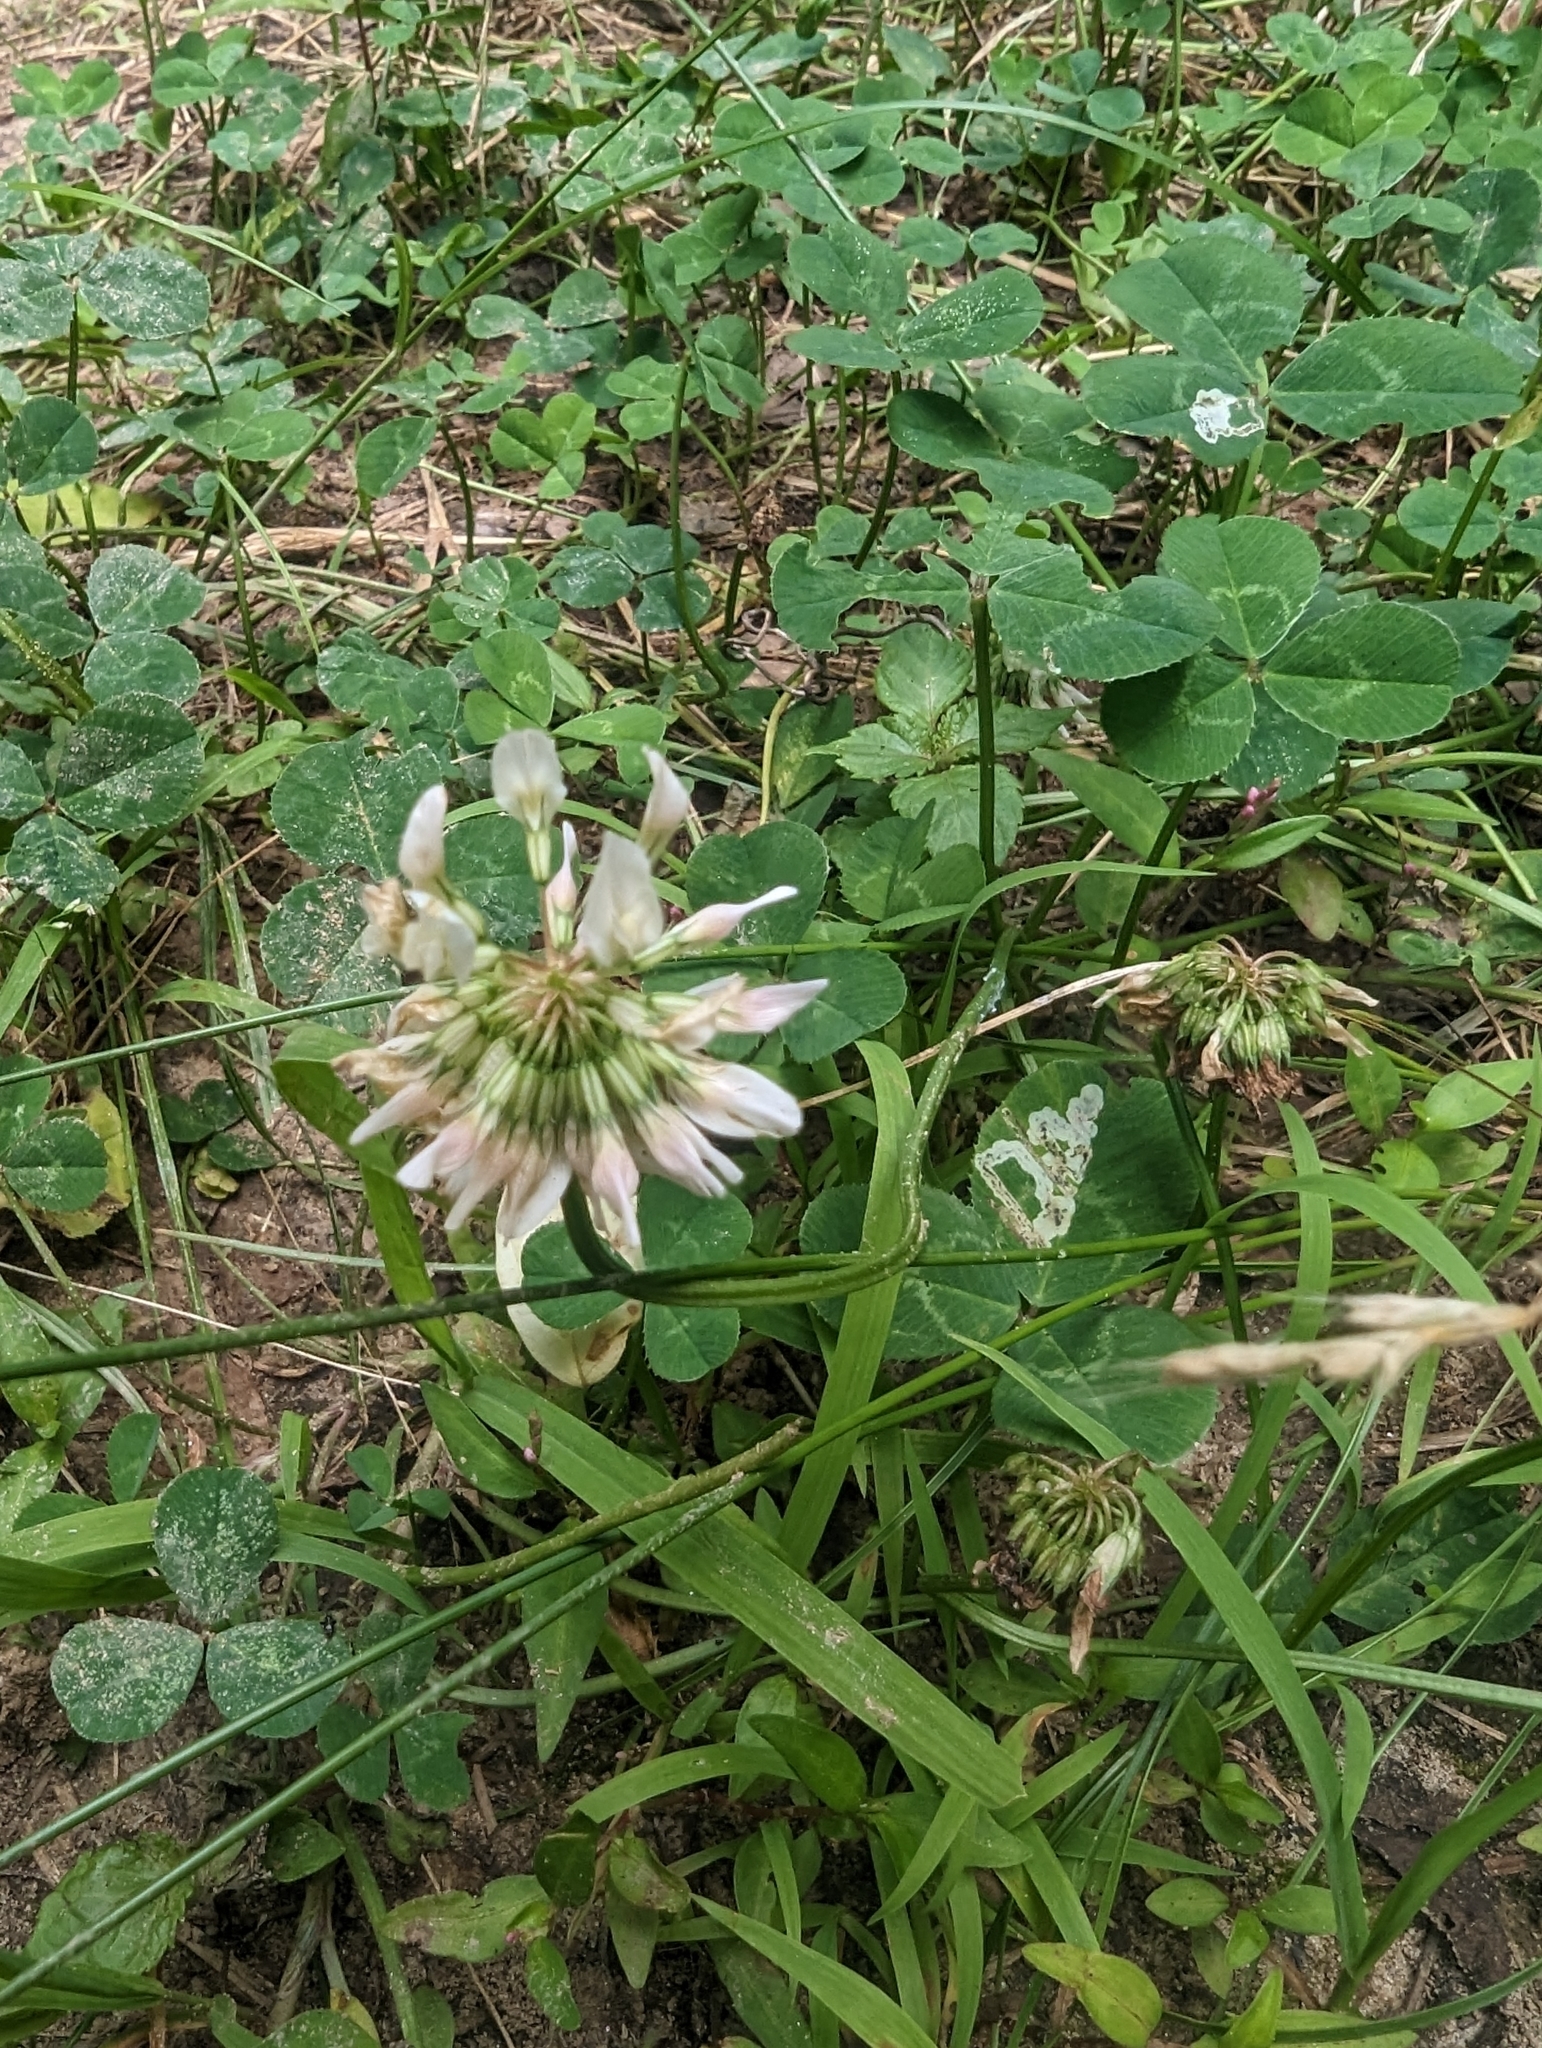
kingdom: Plantae
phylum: Tracheophyta
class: Magnoliopsida
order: Fabales
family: Fabaceae
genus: Trifolium
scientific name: Trifolium repens
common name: White clover
